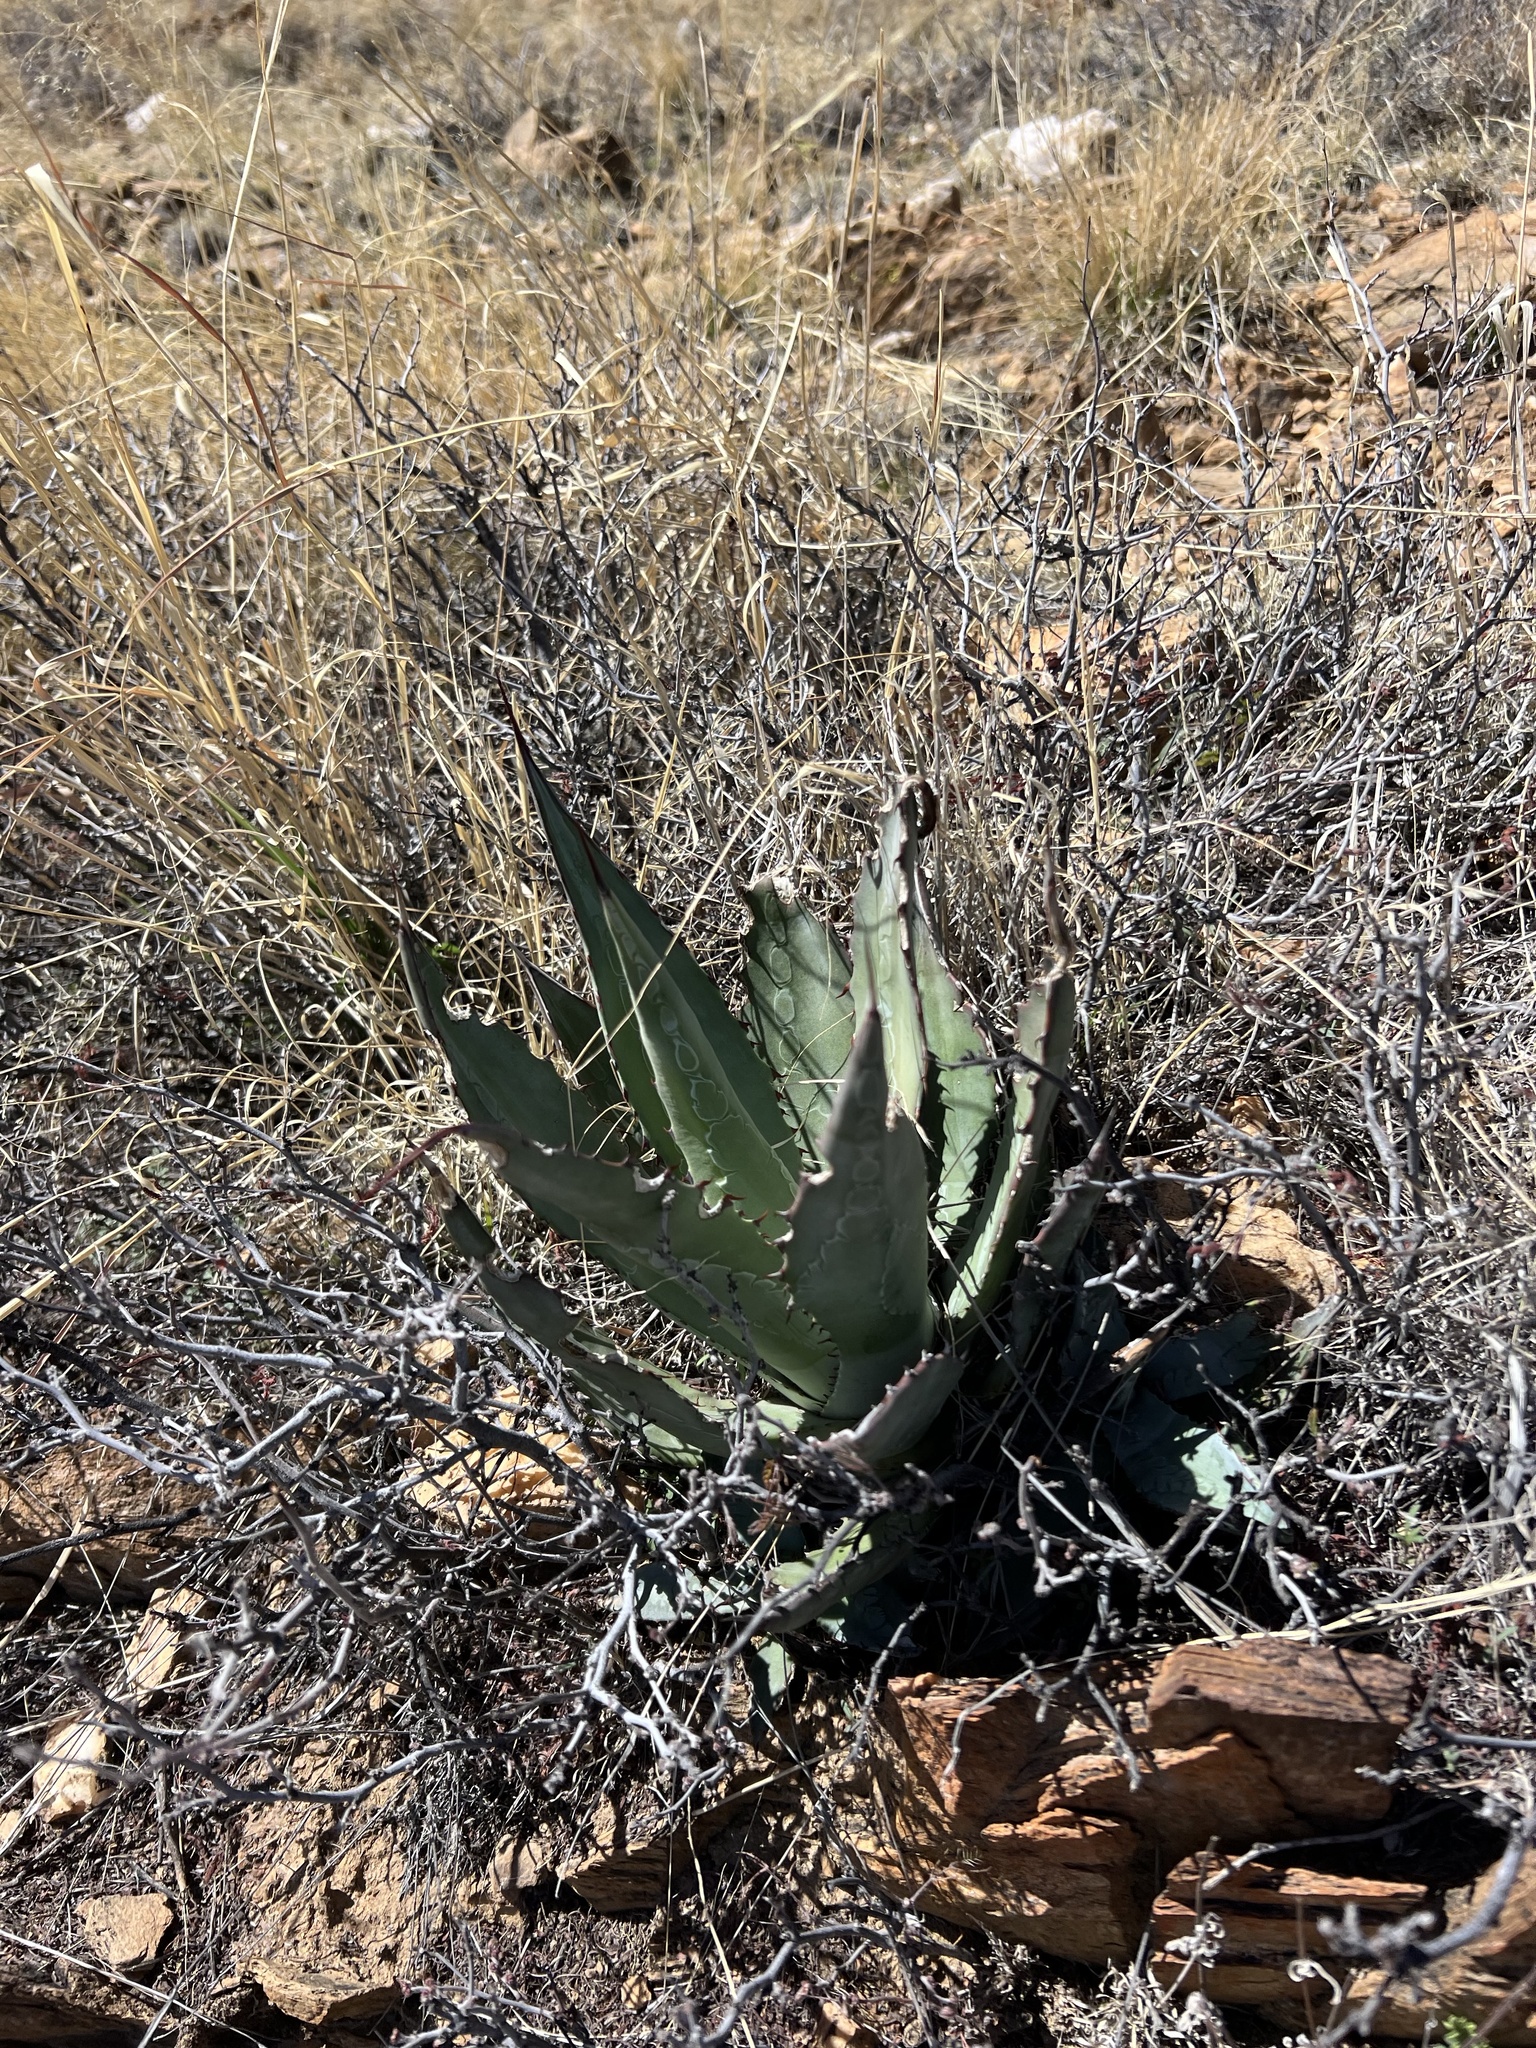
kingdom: Plantae
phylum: Tracheophyta
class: Liliopsida
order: Asparagales
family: Asparagaceae
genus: Agave
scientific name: Agave palmeri
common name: Palmer agave
